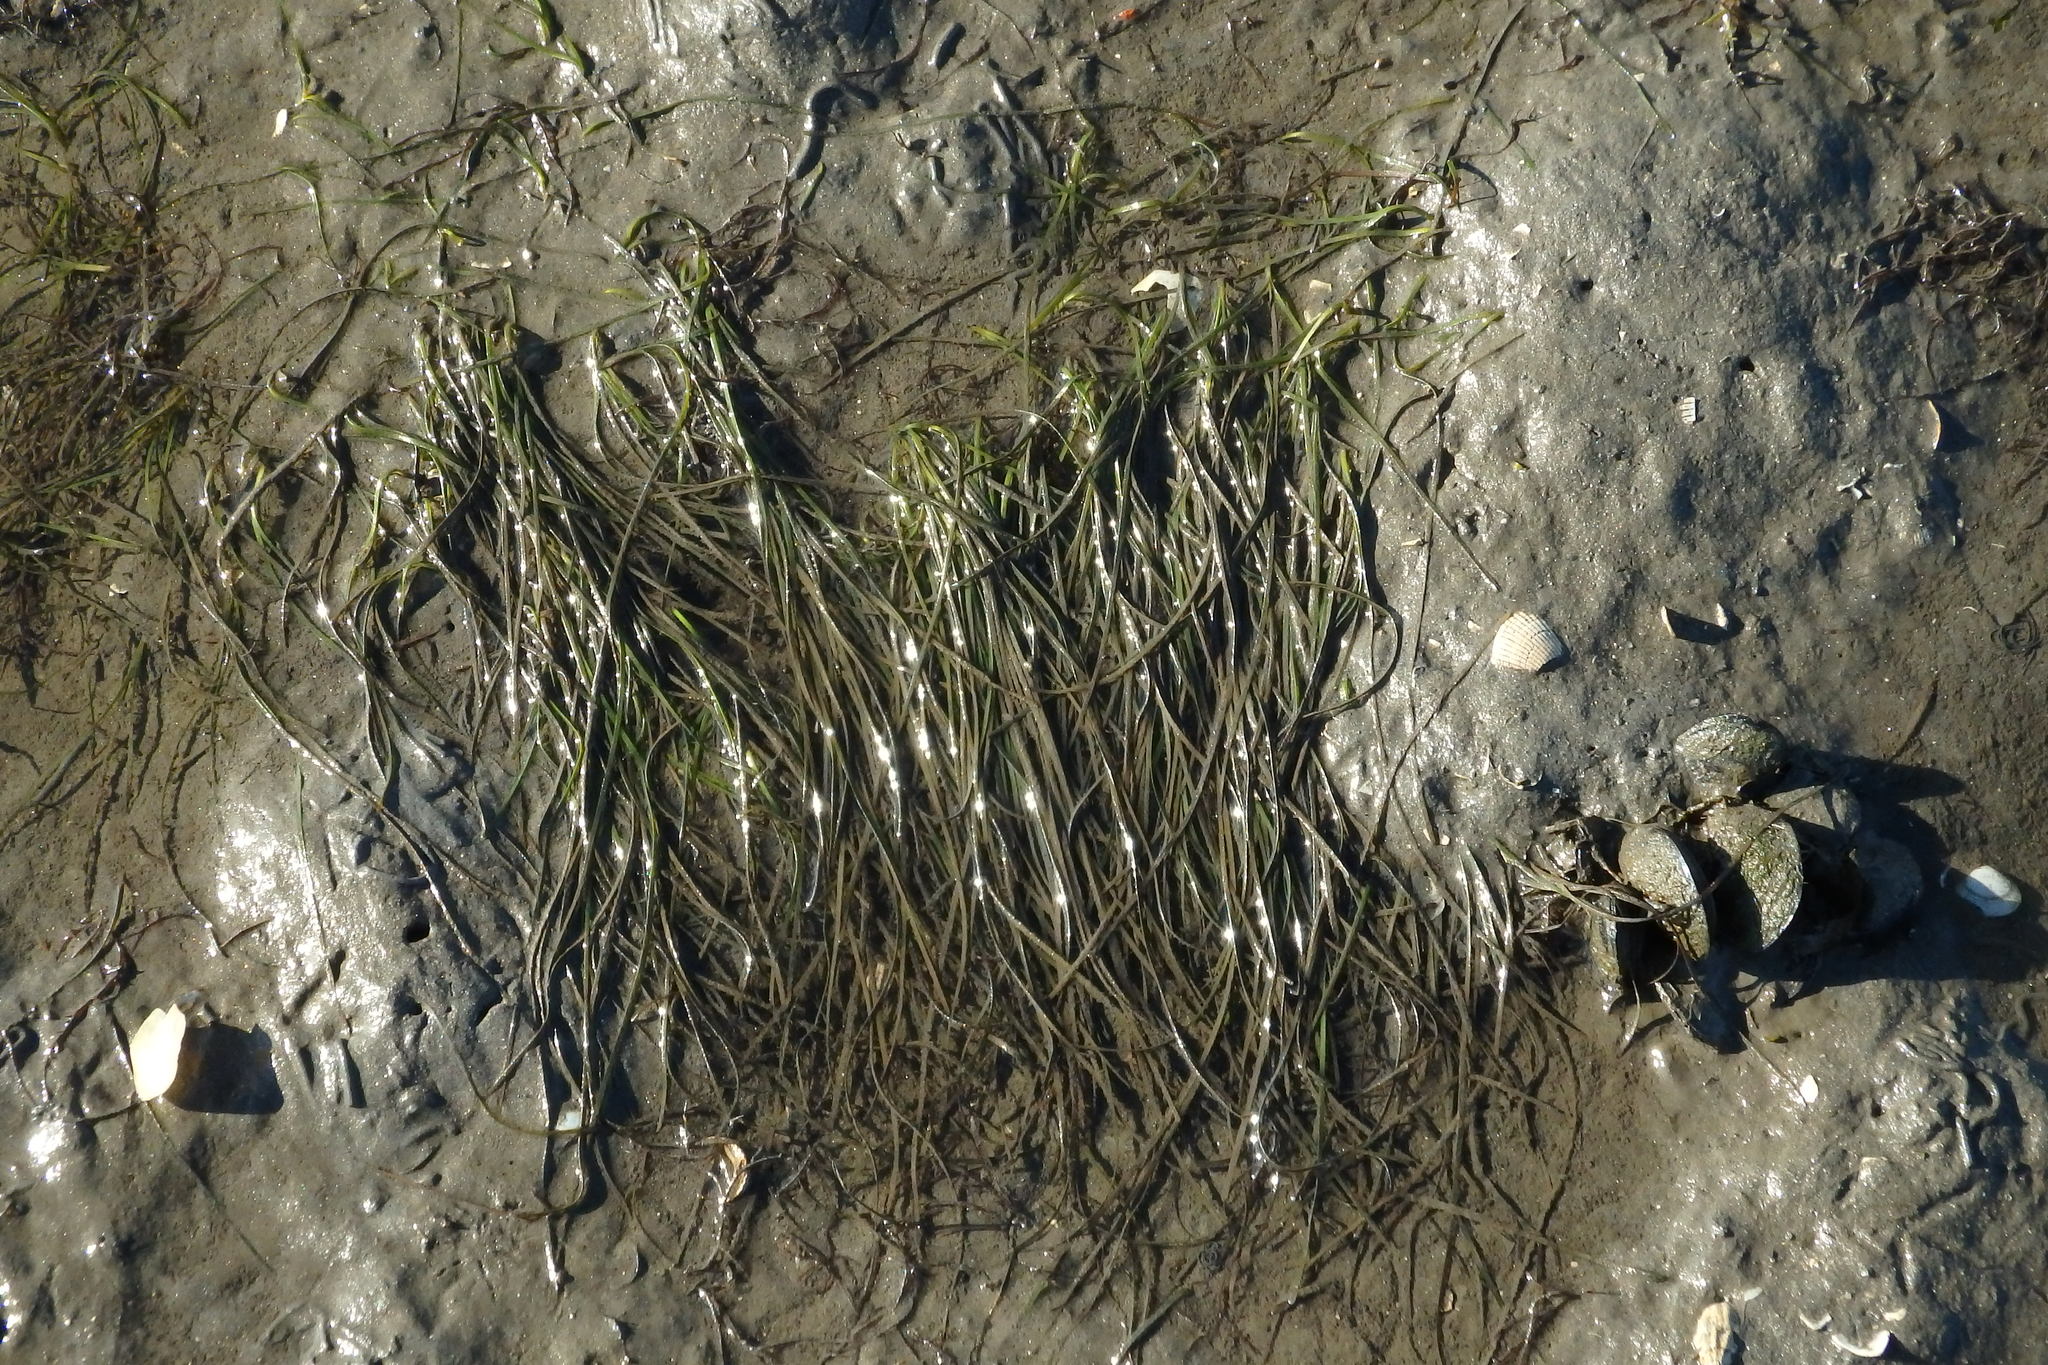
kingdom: Plantae
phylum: Tracheophyta
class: Liliopsida
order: Alismatales
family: Zosteraceae
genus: Zostera
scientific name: Zostera noltii
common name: Dwarf eelgrass
